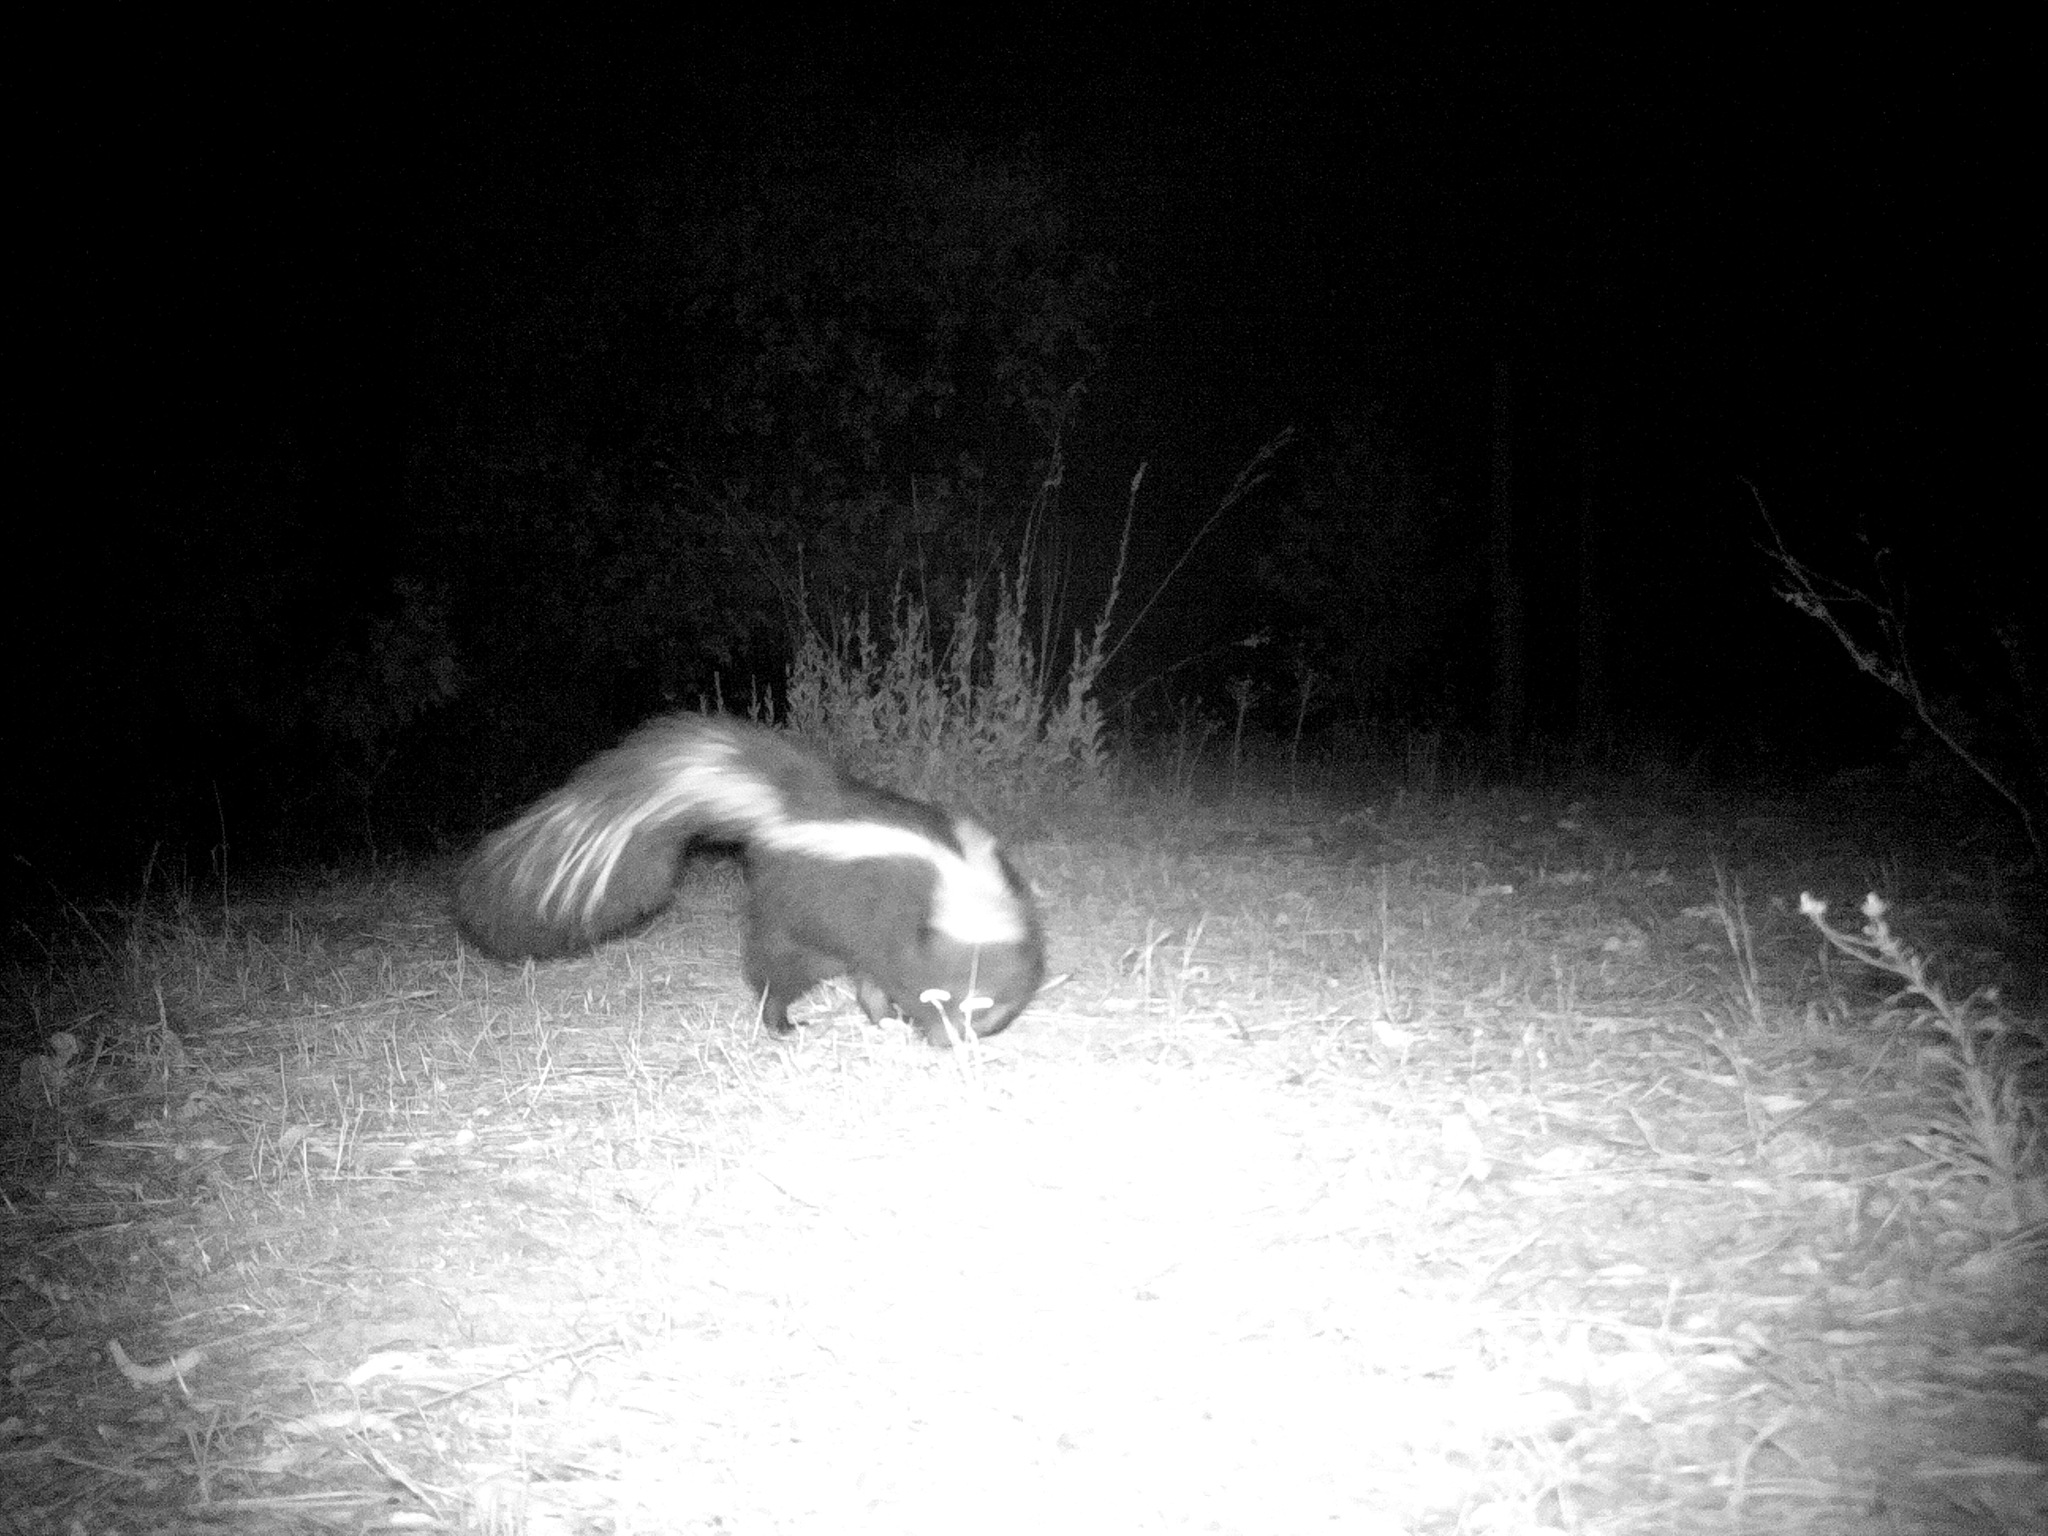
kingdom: Animalia
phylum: Chordata
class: Mammalia
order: Carnivora
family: Mephitidae
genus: Mephitis
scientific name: Mephitis mephitis
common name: Striped skunk
